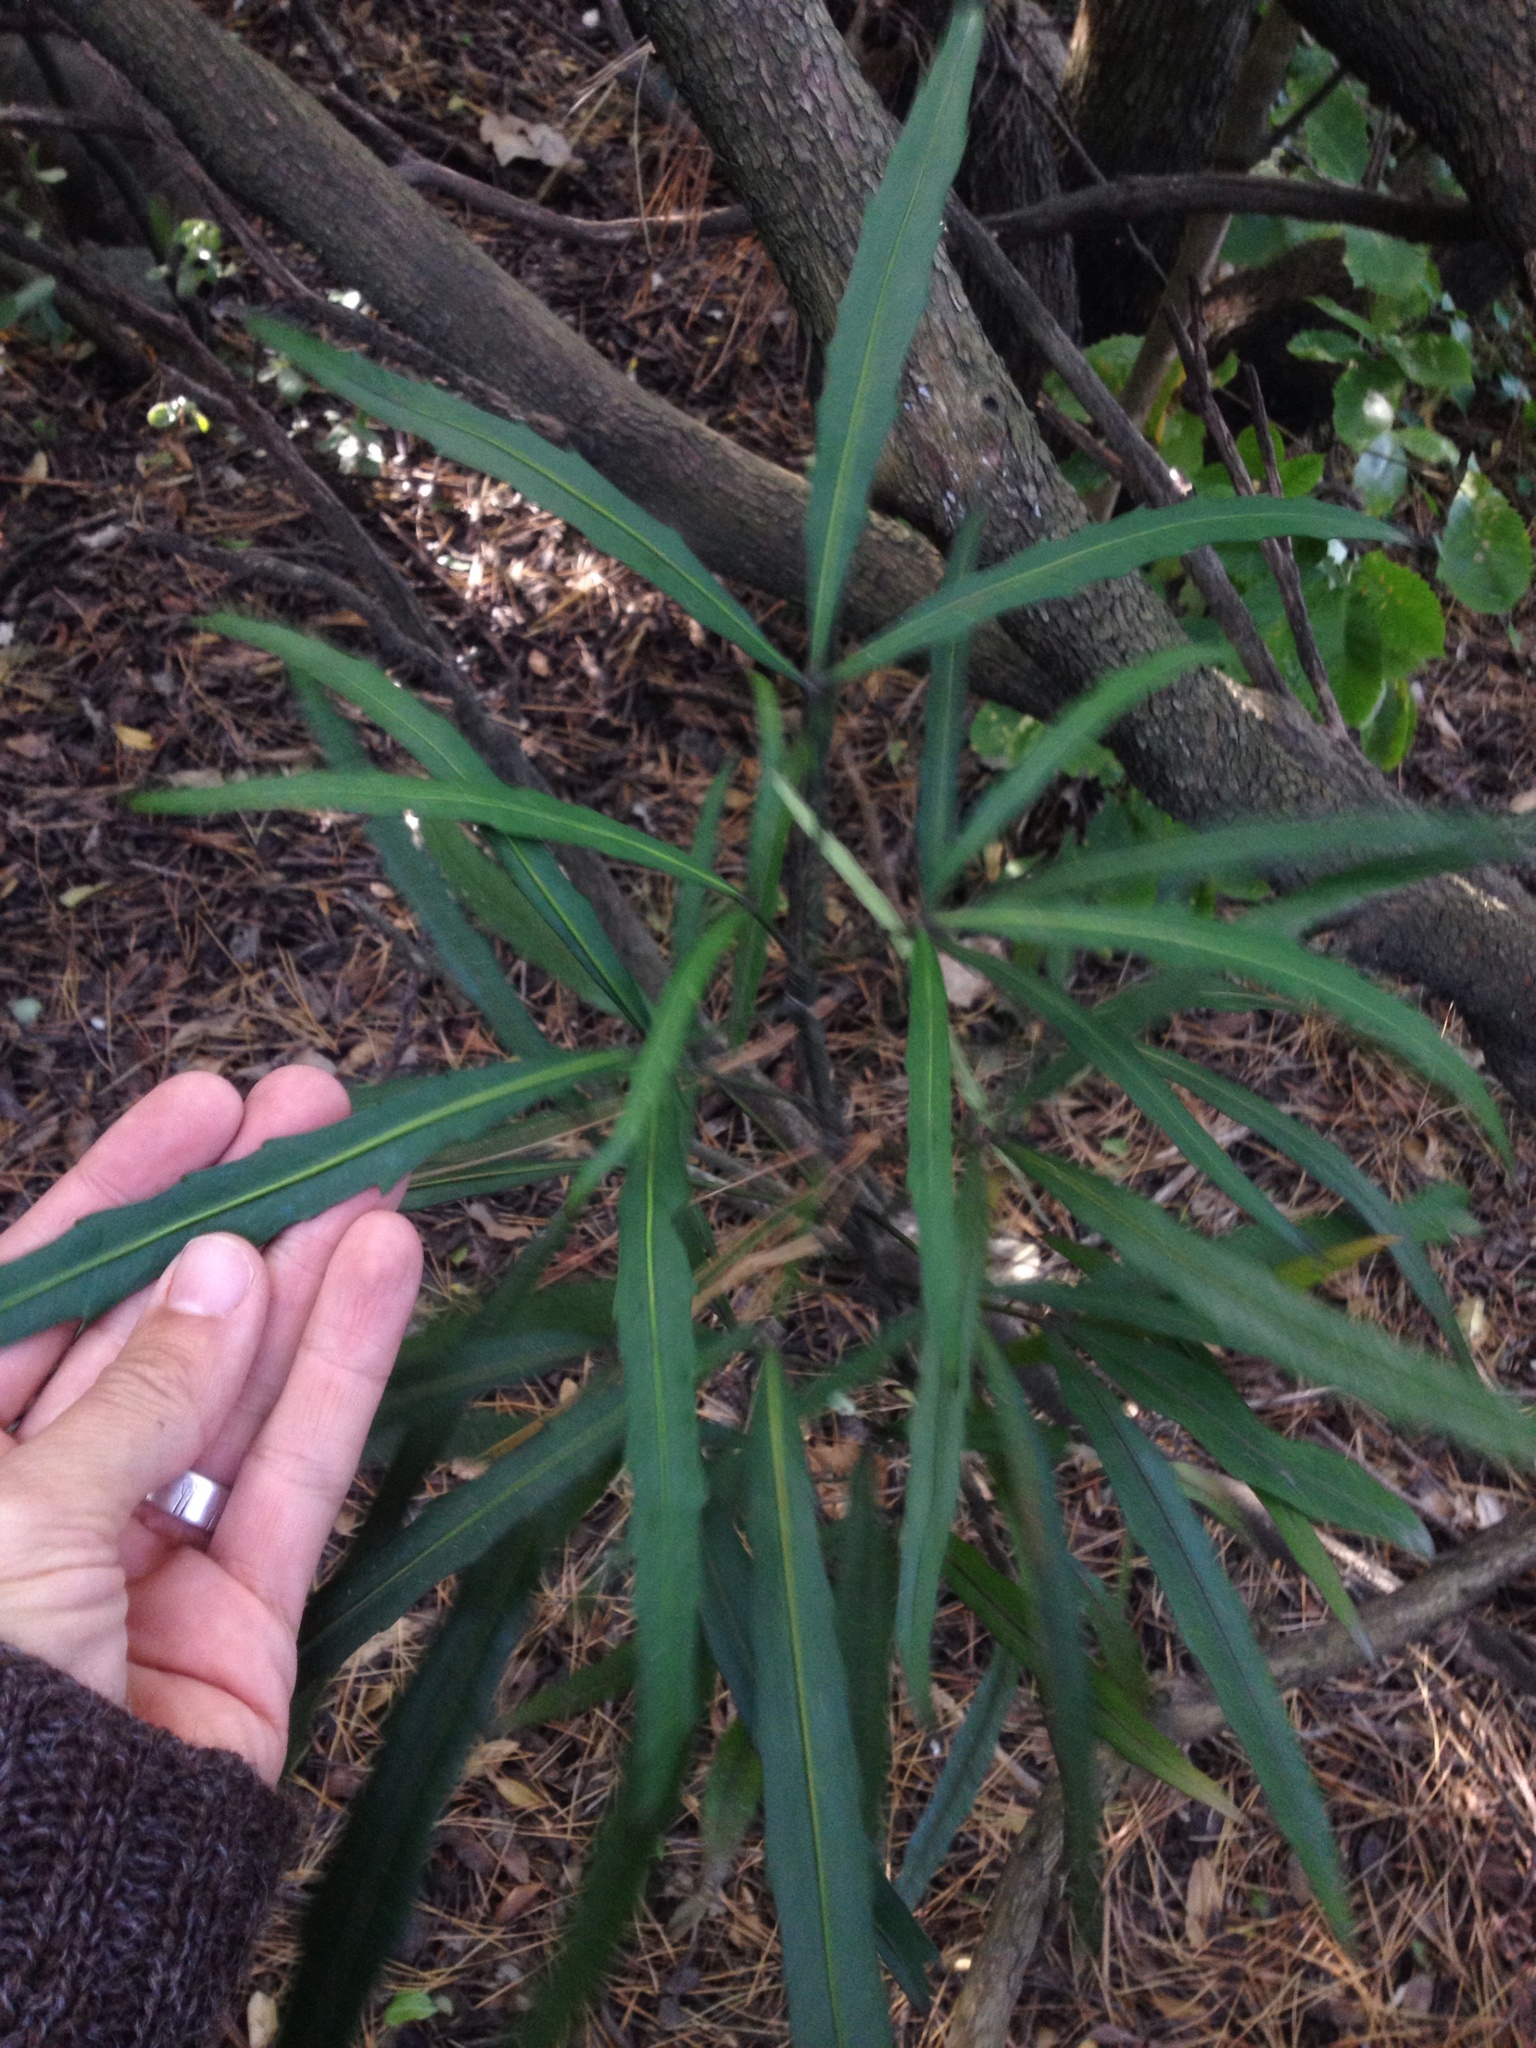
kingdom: Plantae
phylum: Tracheophyta
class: Magnoliopsida
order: Apiales
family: Araliaceae
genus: Pseudopanax
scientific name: Pseudopanax
